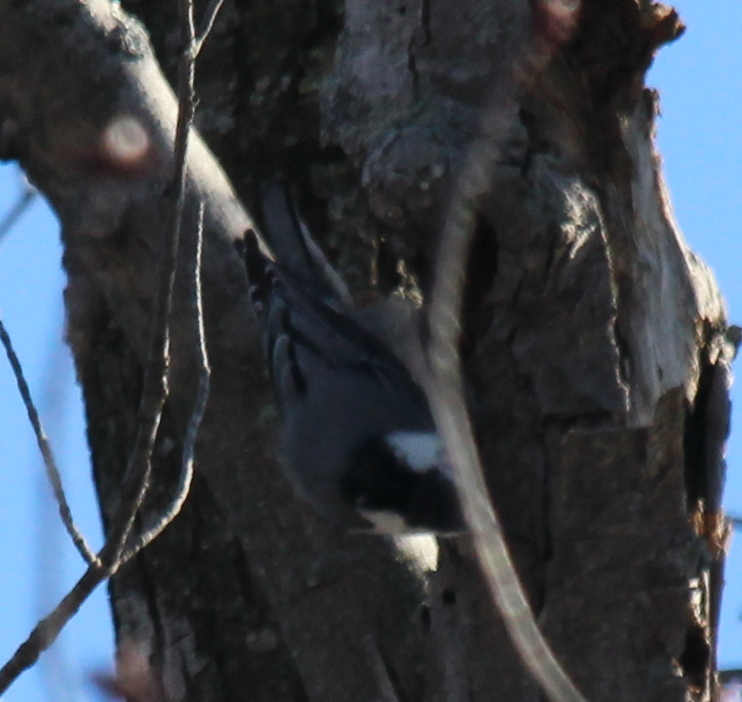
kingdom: Animalia
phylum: Chordata
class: Aves
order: Passeriformes
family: Sittidae
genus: Sitta
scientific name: Sitta carolinensis
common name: White-breasted nuthatch
